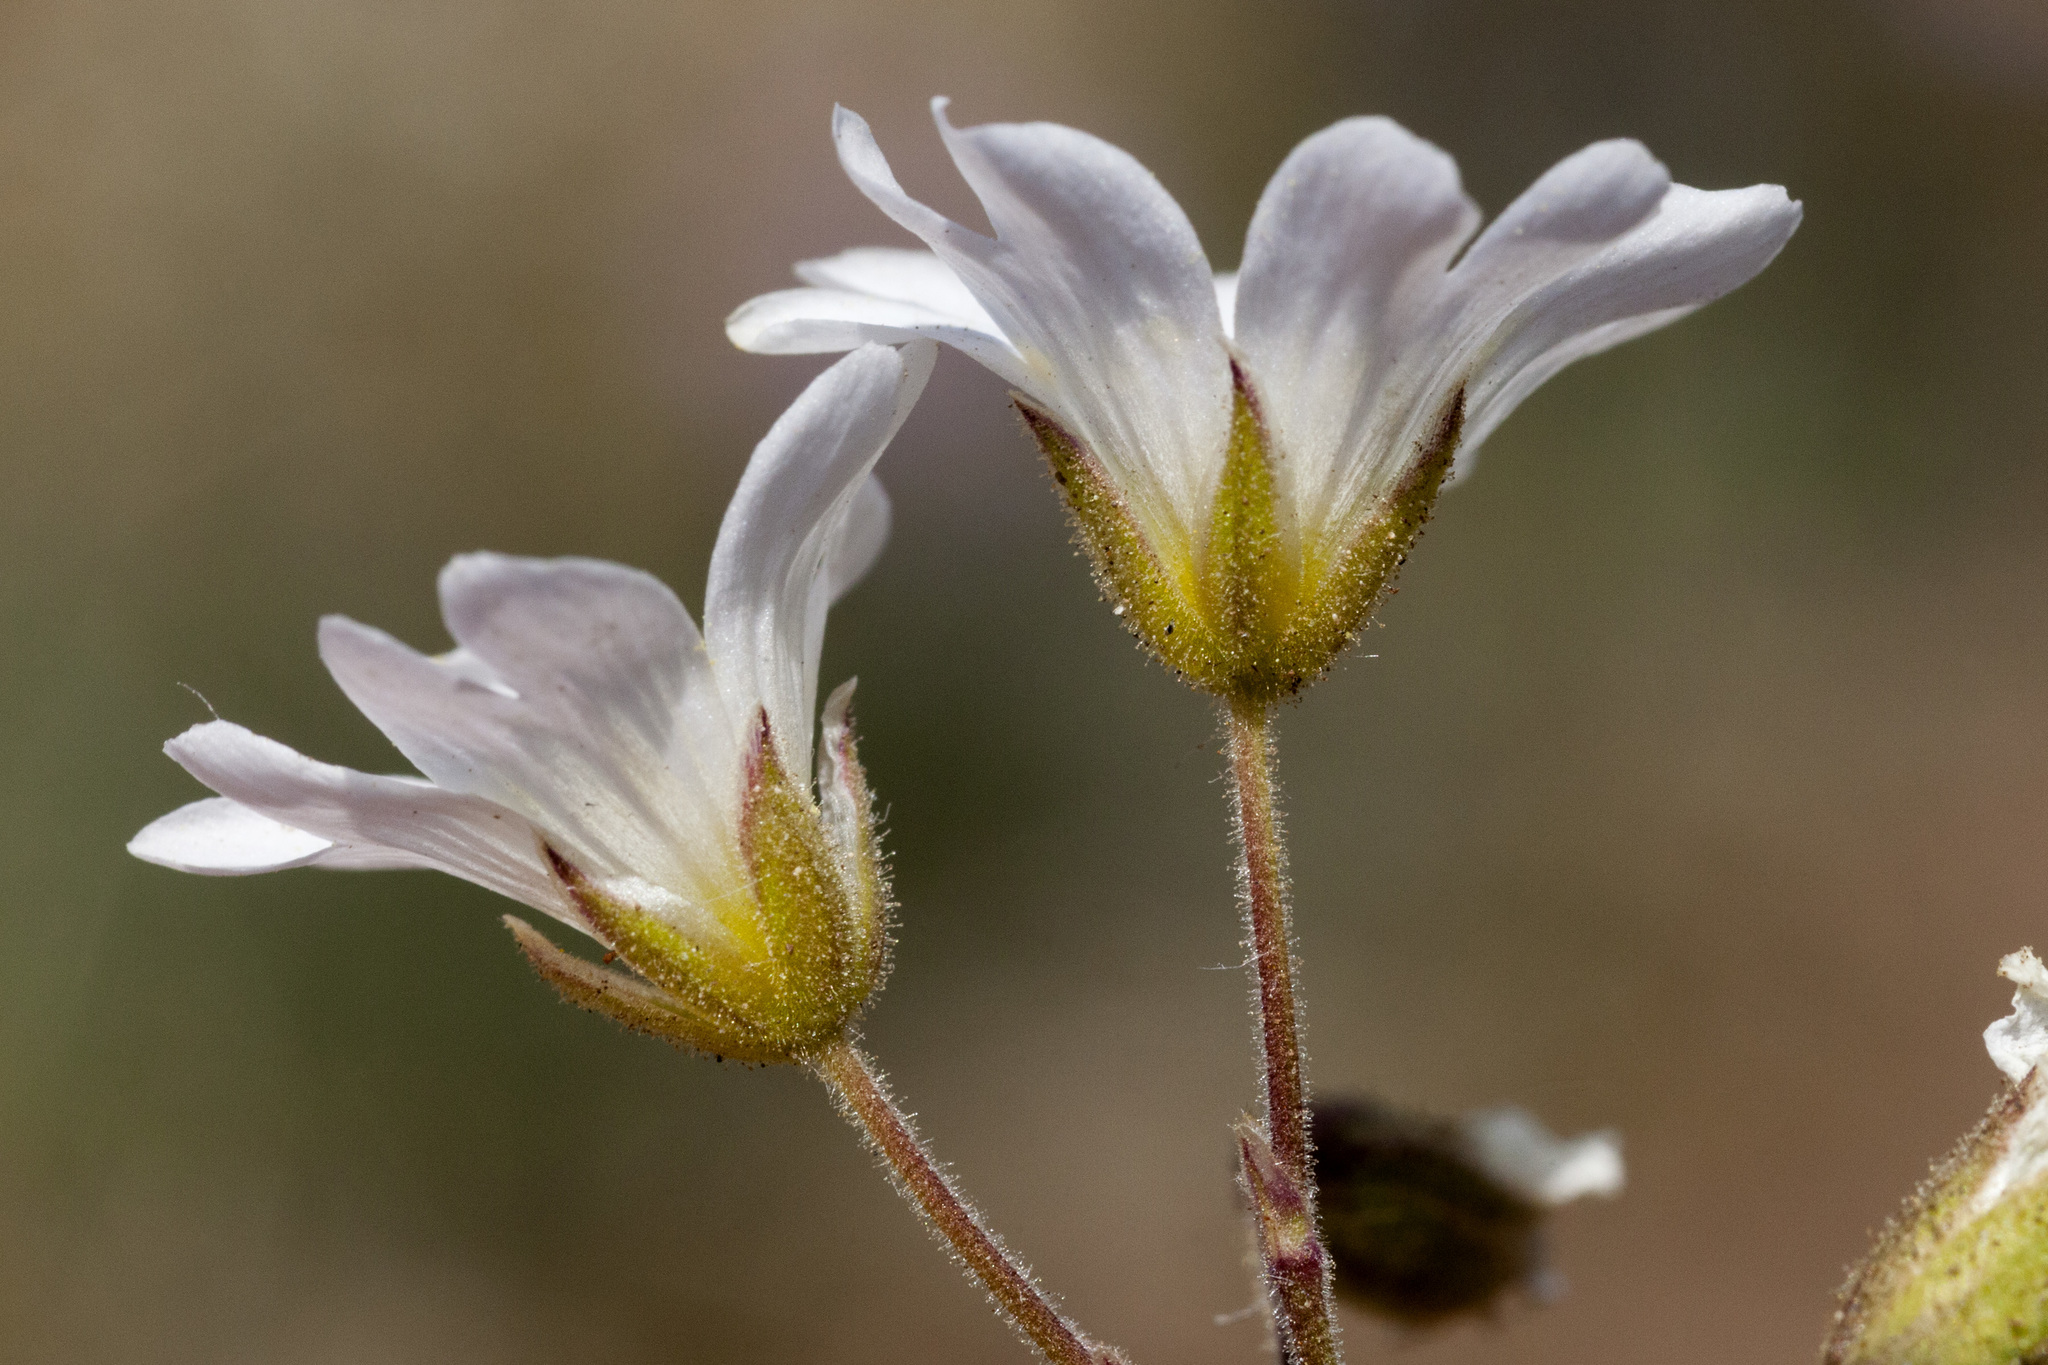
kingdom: Plantae
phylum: Tracheophyta
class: Magnoliopsida
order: Caryophyllales
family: Caryophyllaceae
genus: Cerastium
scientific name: Cerastium arvense
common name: Field mouse-ear
